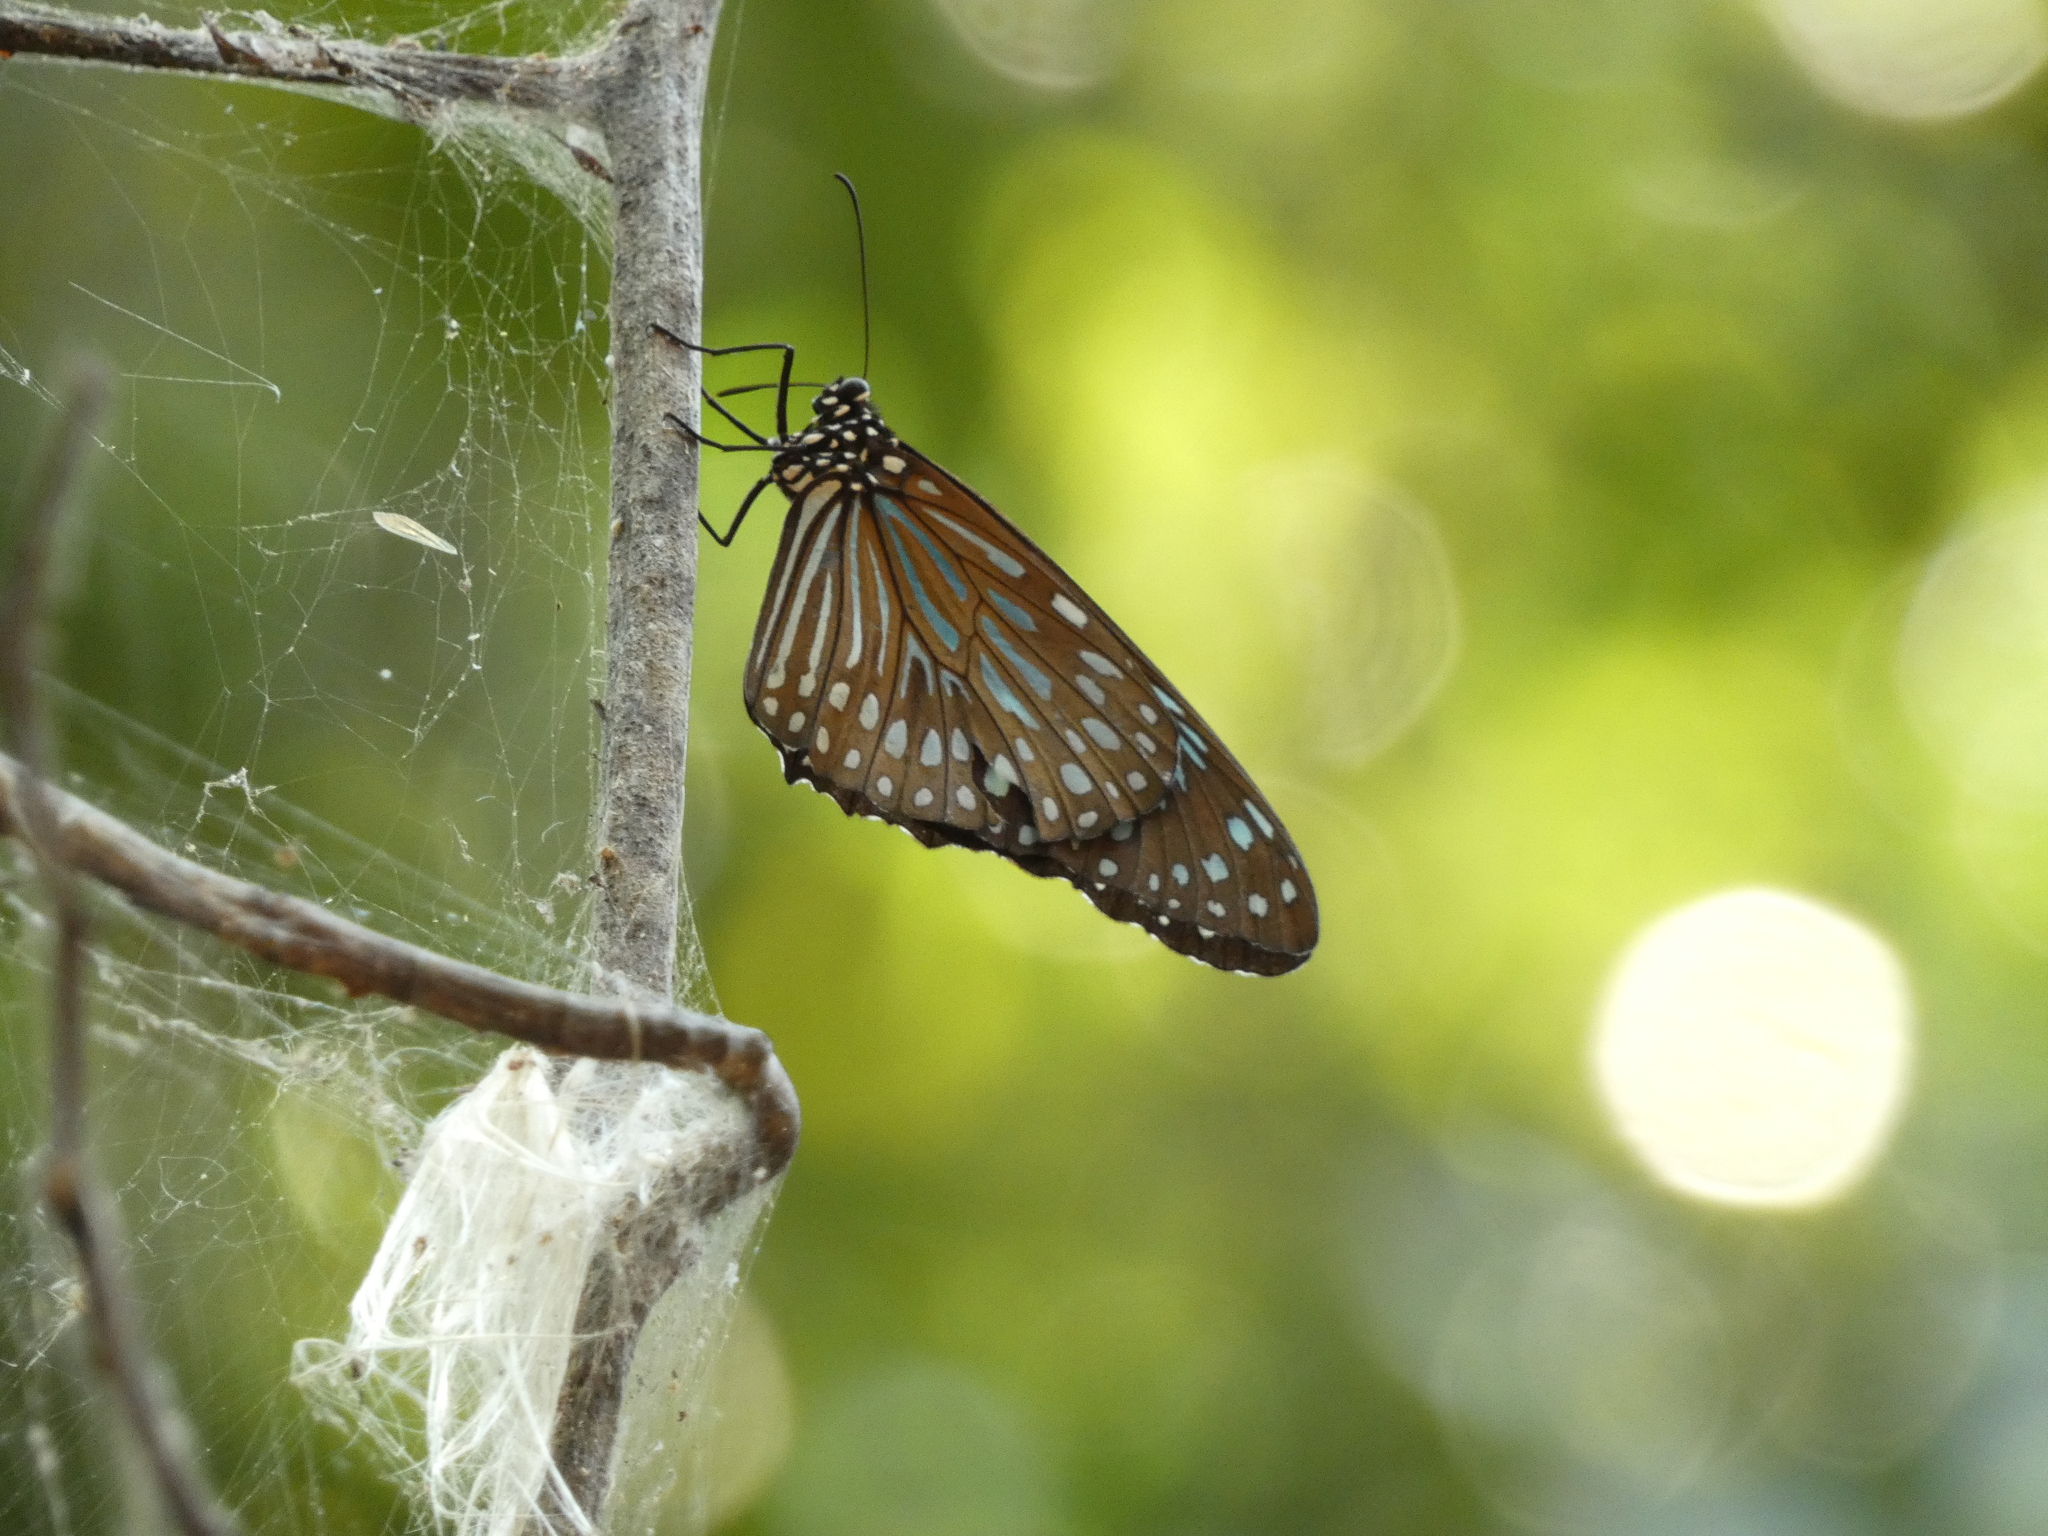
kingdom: Animalia
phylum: Arthropoda
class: Insecta
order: Lepidoptera
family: Nymphalidae
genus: Tirumala
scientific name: Tirumala septentrionis
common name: Dark blue tiger butterfly
